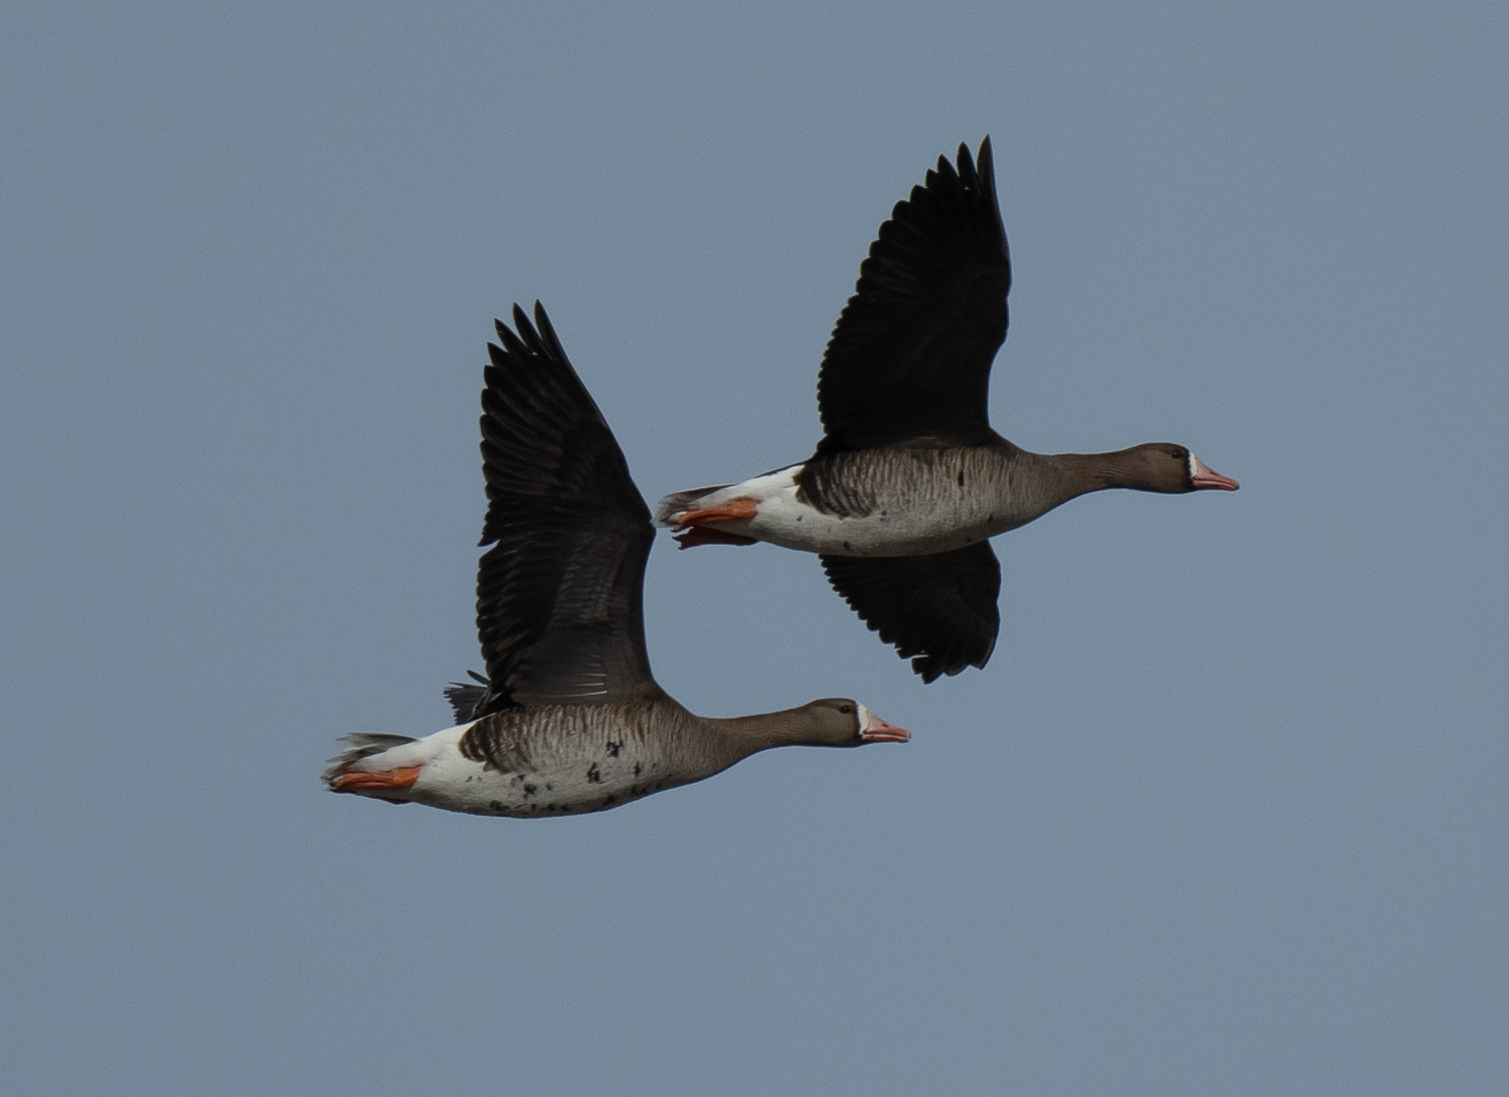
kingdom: Animalia
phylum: Chordata
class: Aves
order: Anseriformes
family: Anatidae
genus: Anser
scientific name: Anser albifrons
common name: Greater white-fronted goose
